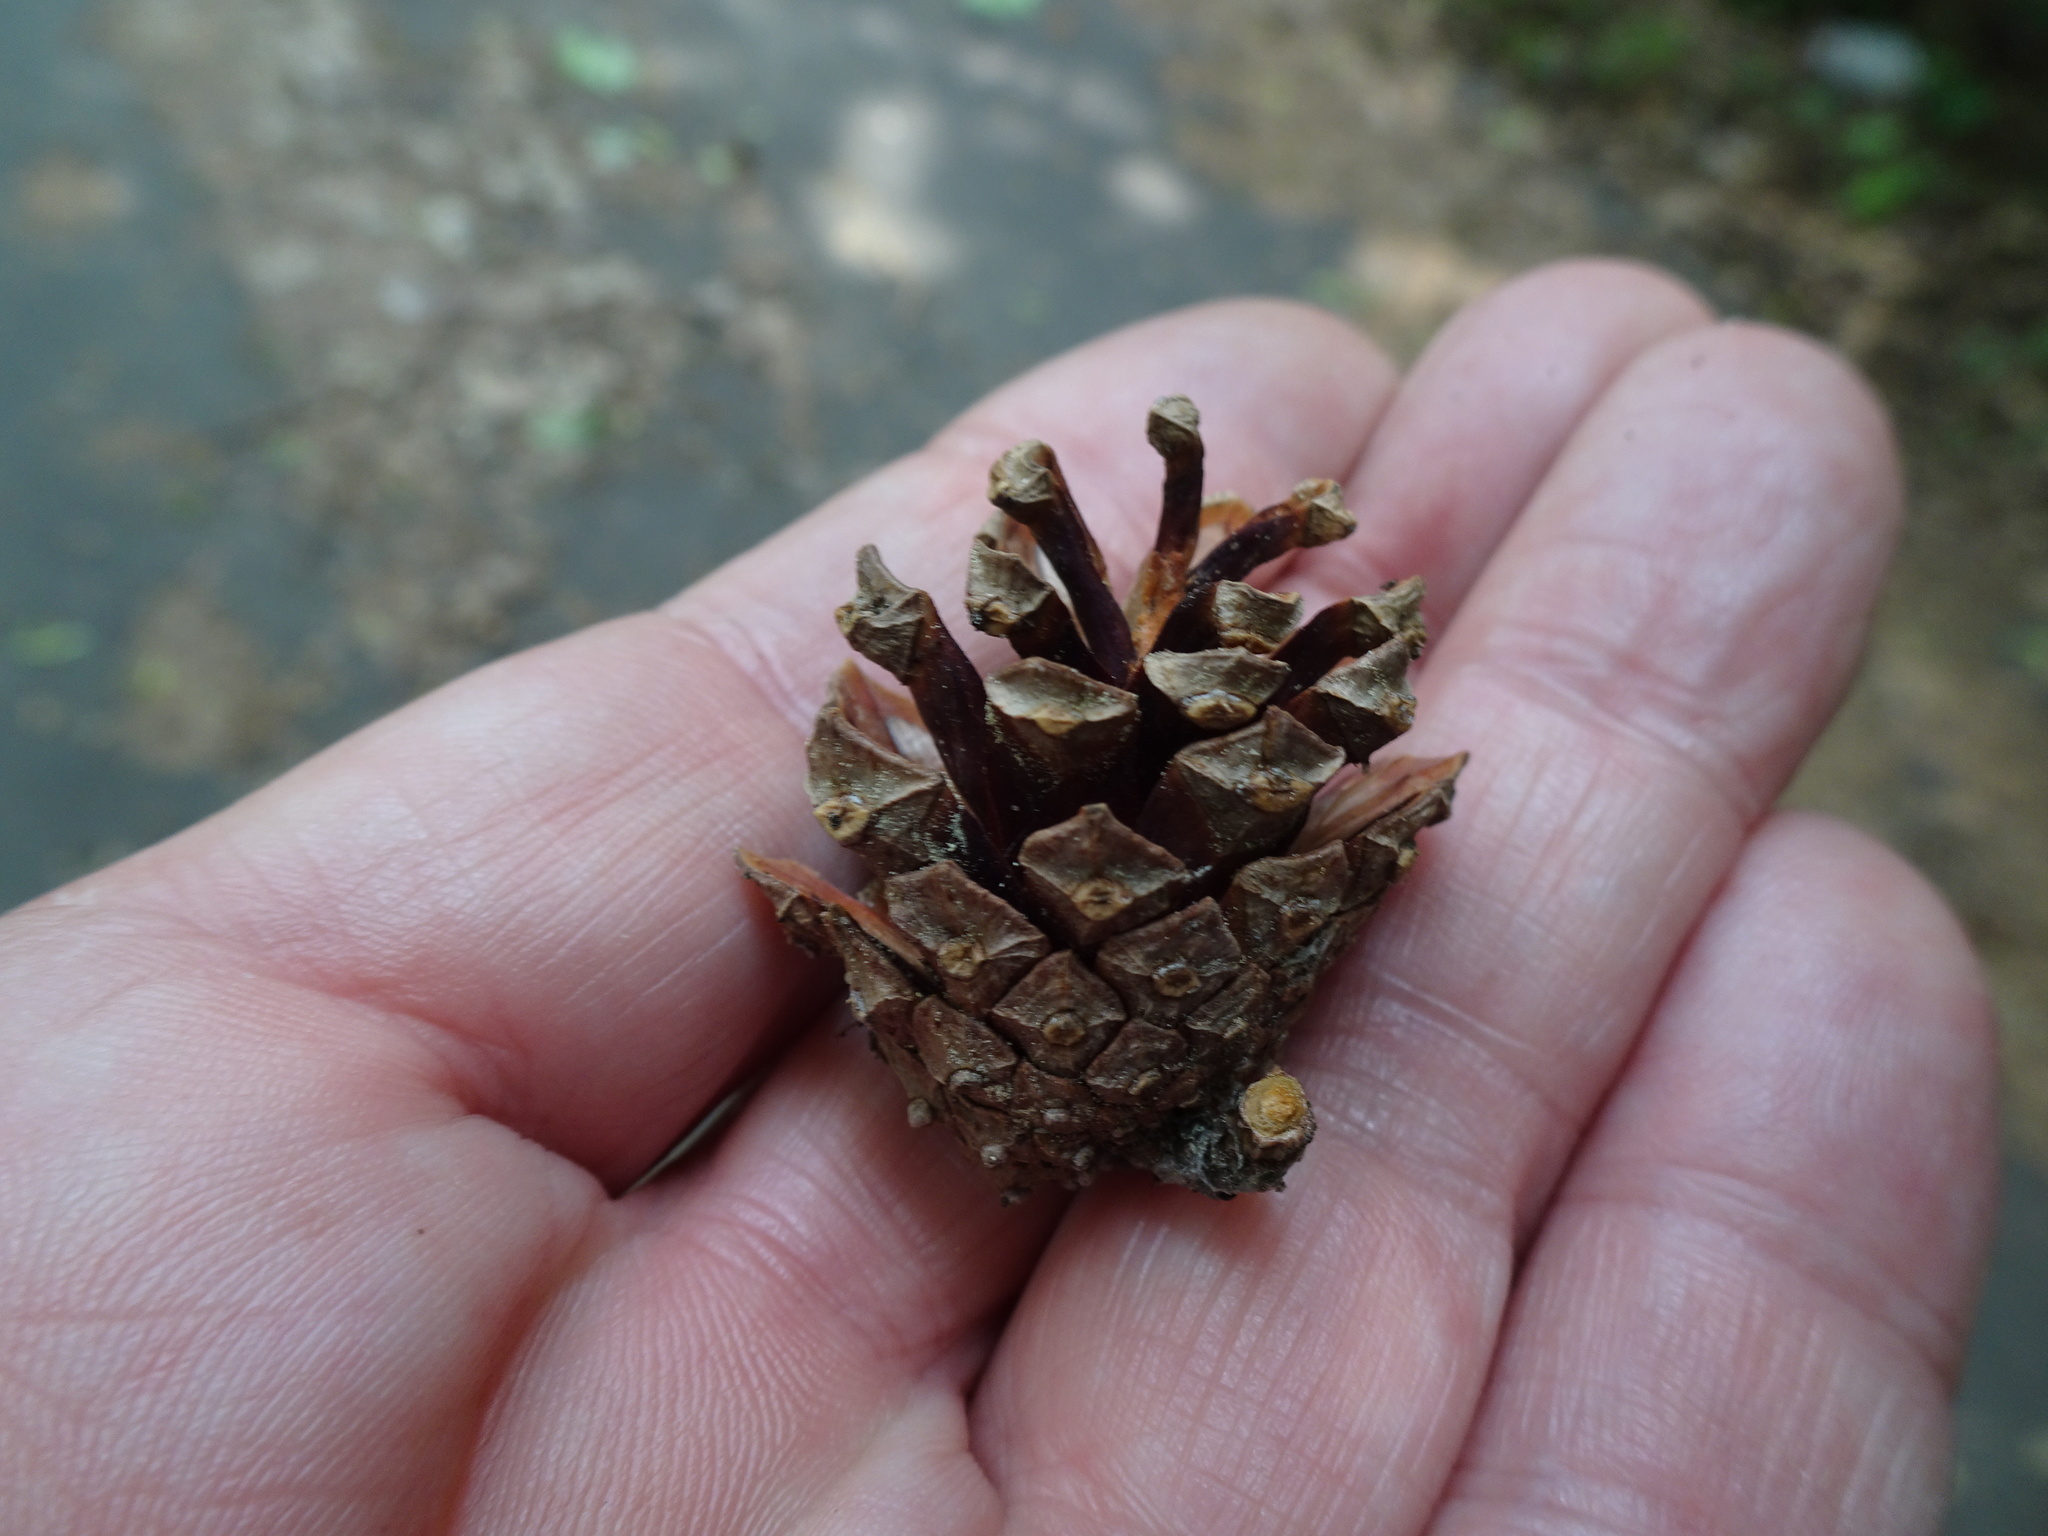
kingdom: Plantae
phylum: Tracheophyta
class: Pinopsida
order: Pinales
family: Pinaceae
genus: Pinus
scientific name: Pinus sylvestris
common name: Scots pine
